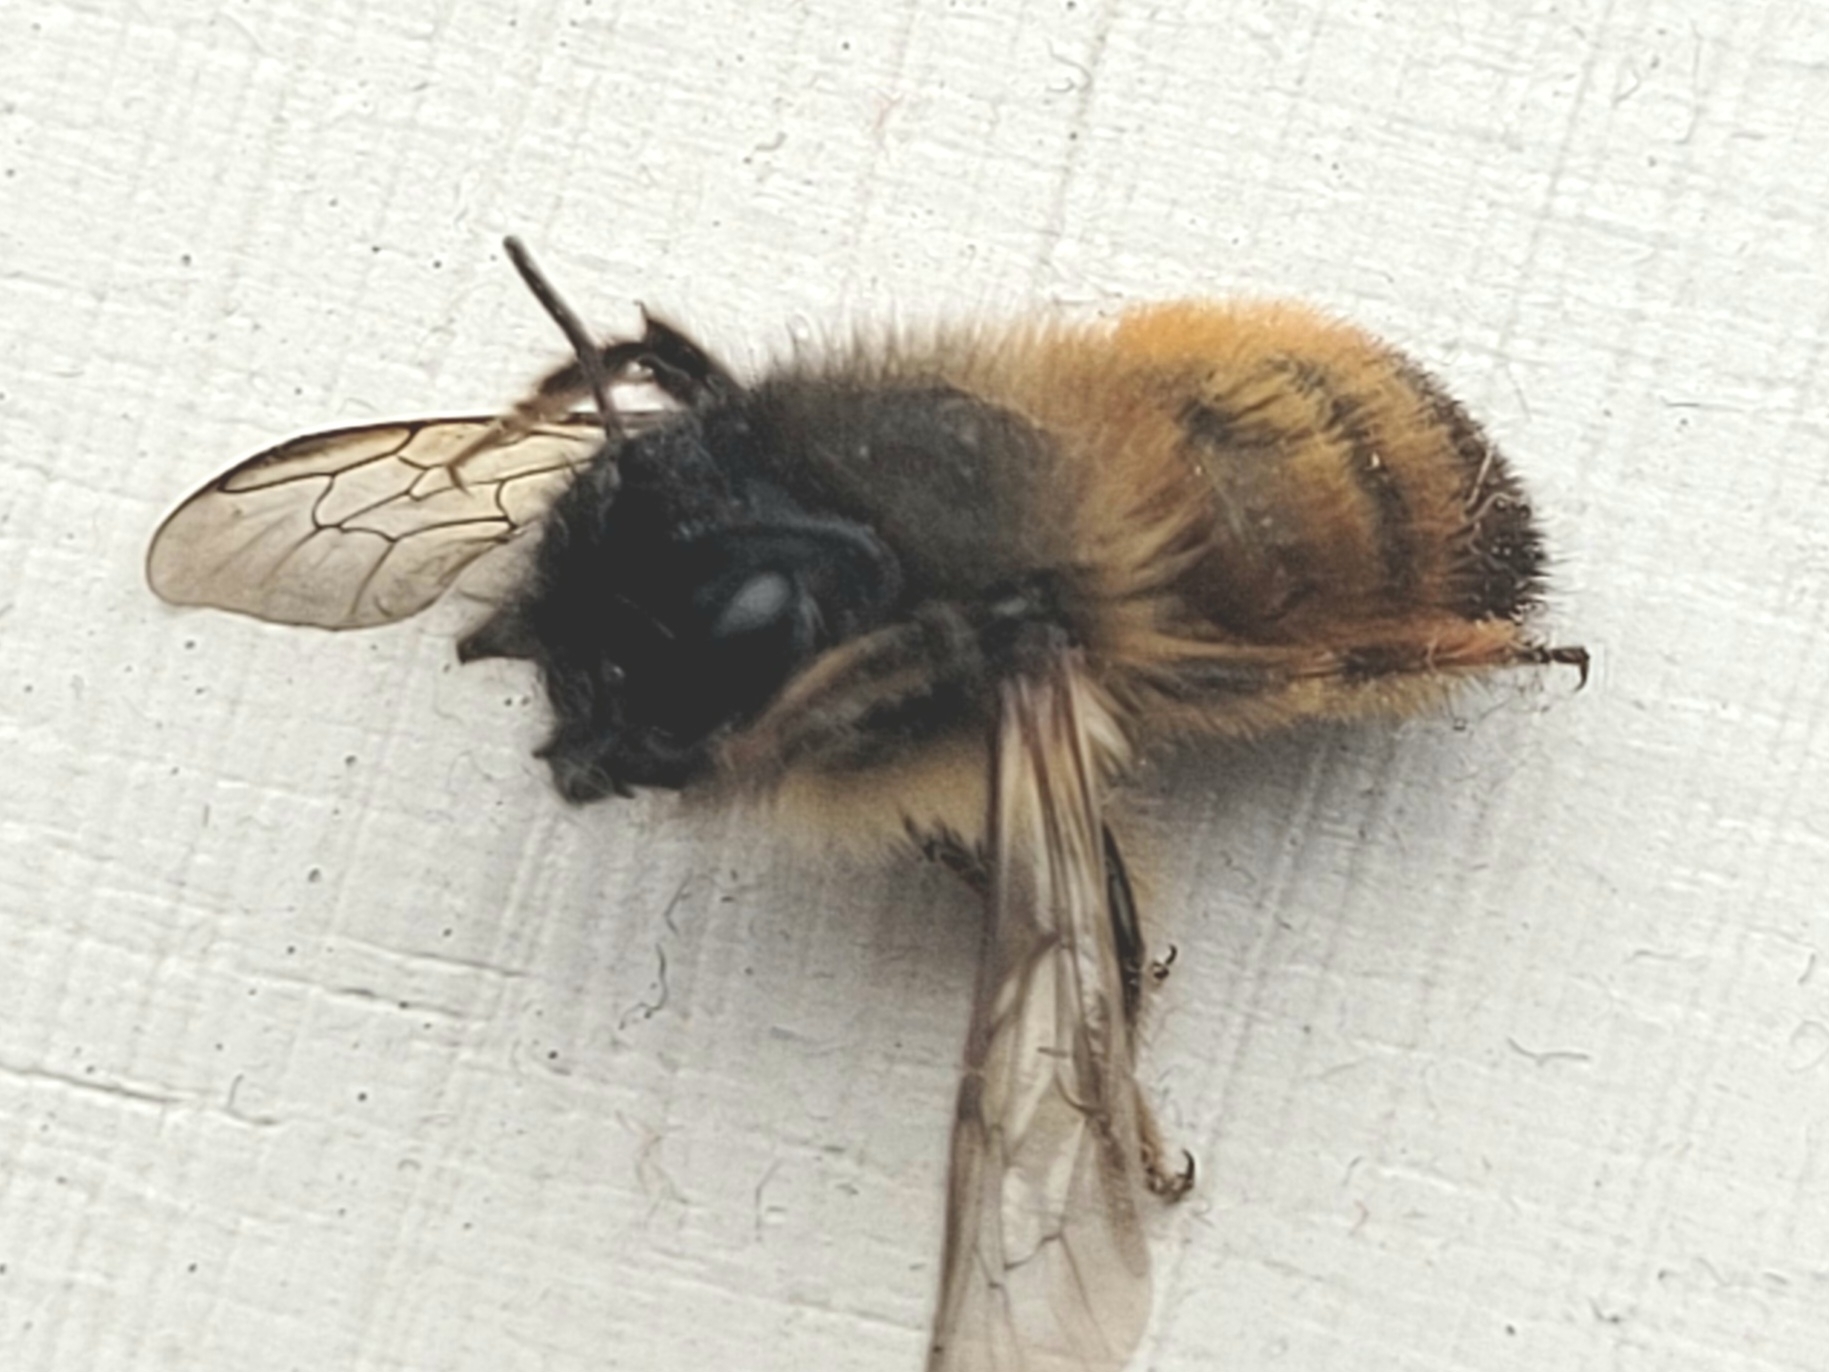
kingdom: Animalia
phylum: Arthropoda
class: Insecta
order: Hymenoptera
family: Megachilidae
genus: Osmia
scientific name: Osmia bicornis
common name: Red mason bee
